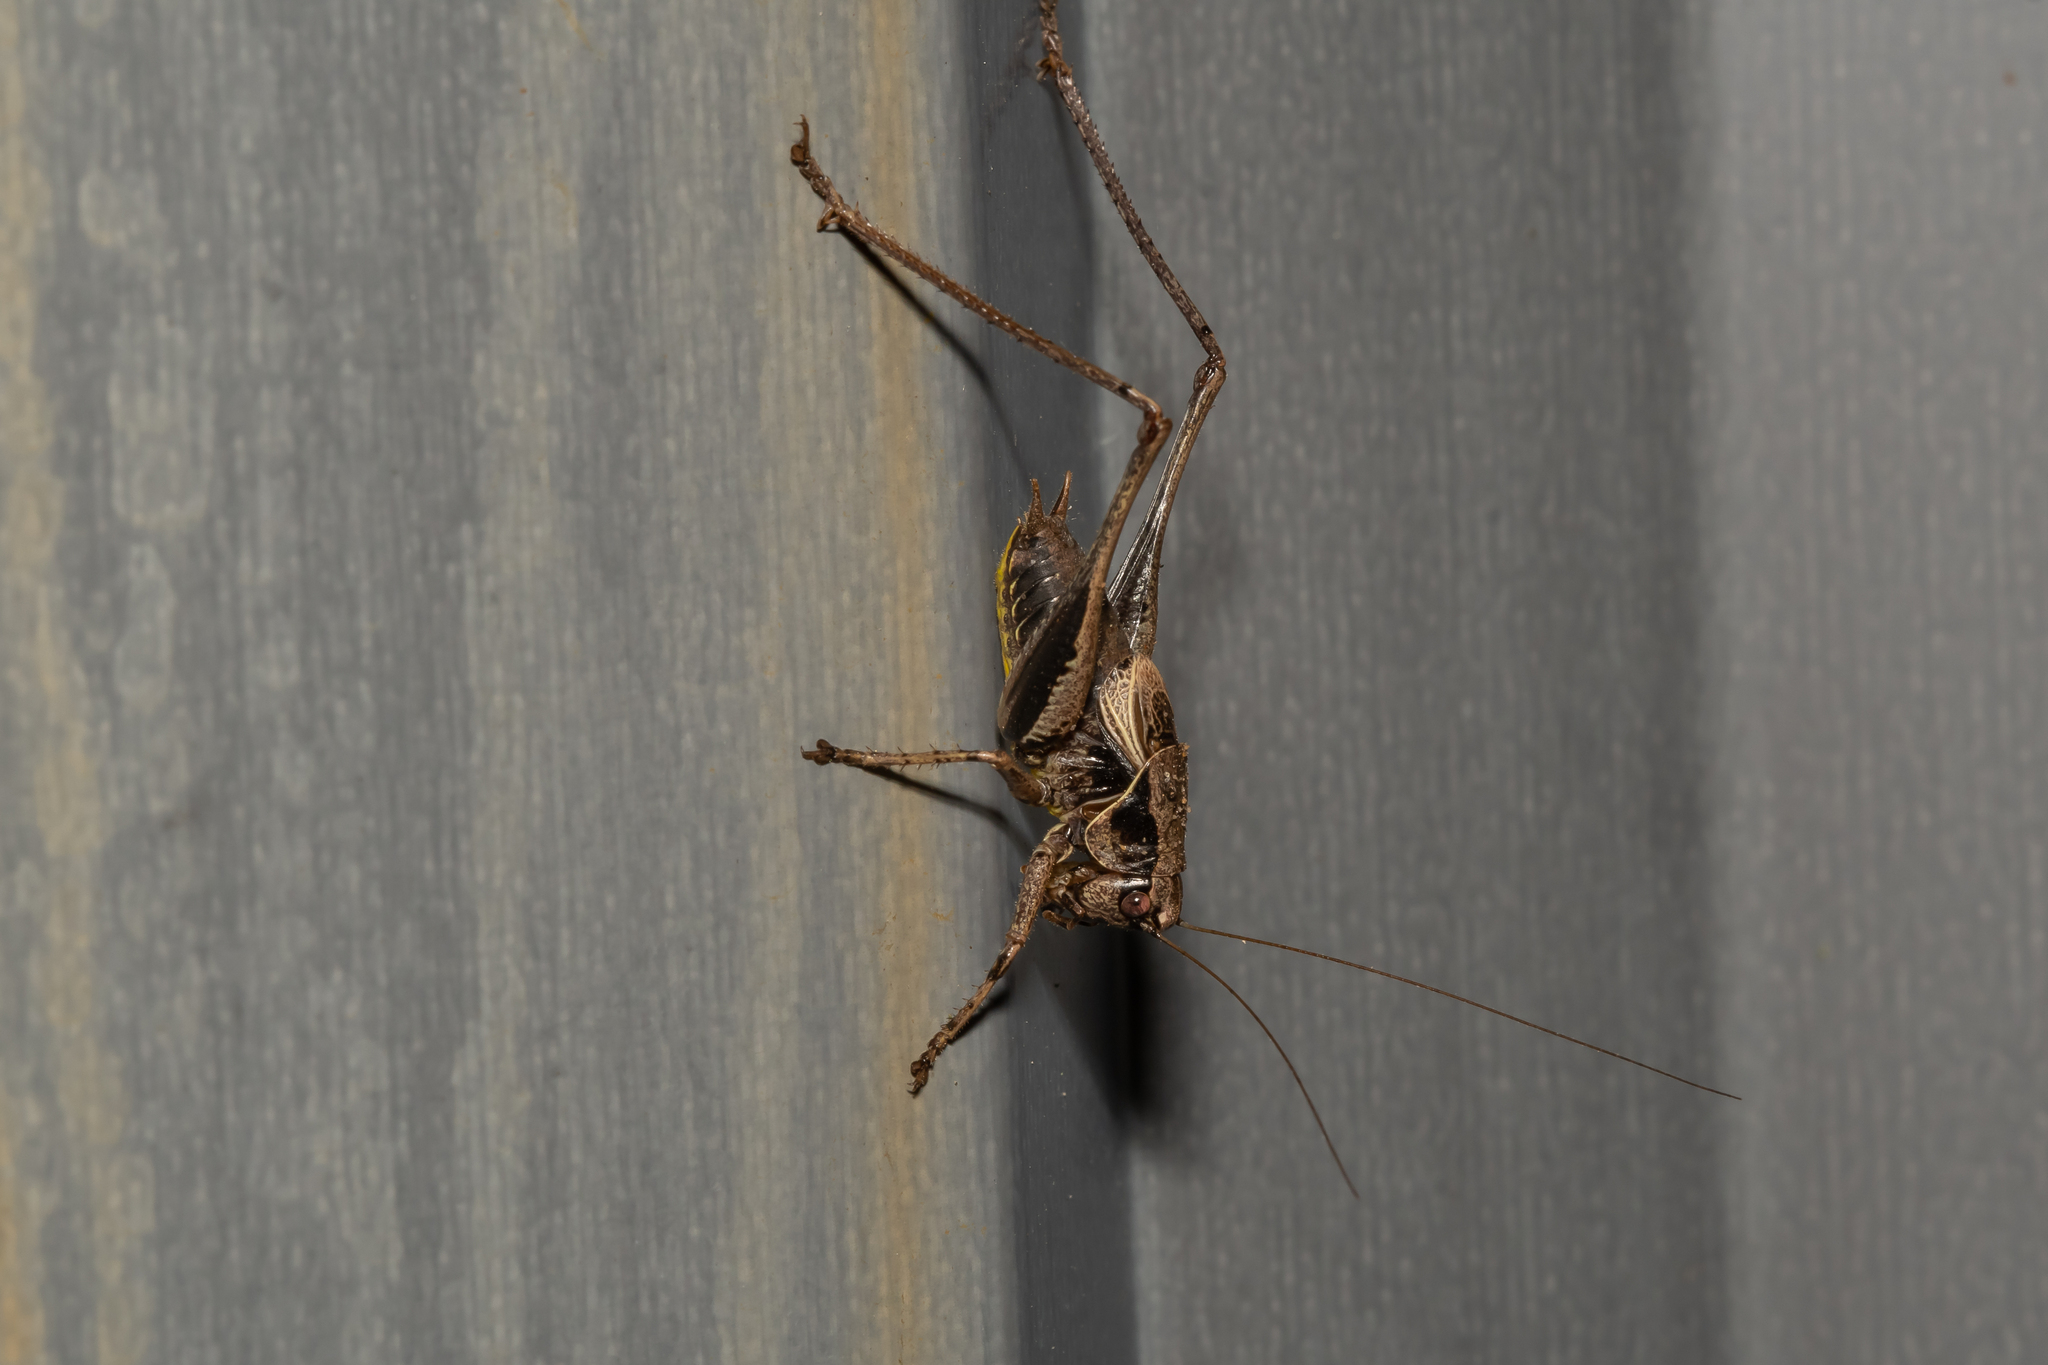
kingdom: Animalia
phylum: Arthropoda
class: Insecta
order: Orthoptera
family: Tettigoniidae
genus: Pholidoptera
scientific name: Pholidoptera griseoaptera
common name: Dark bush-cricket
